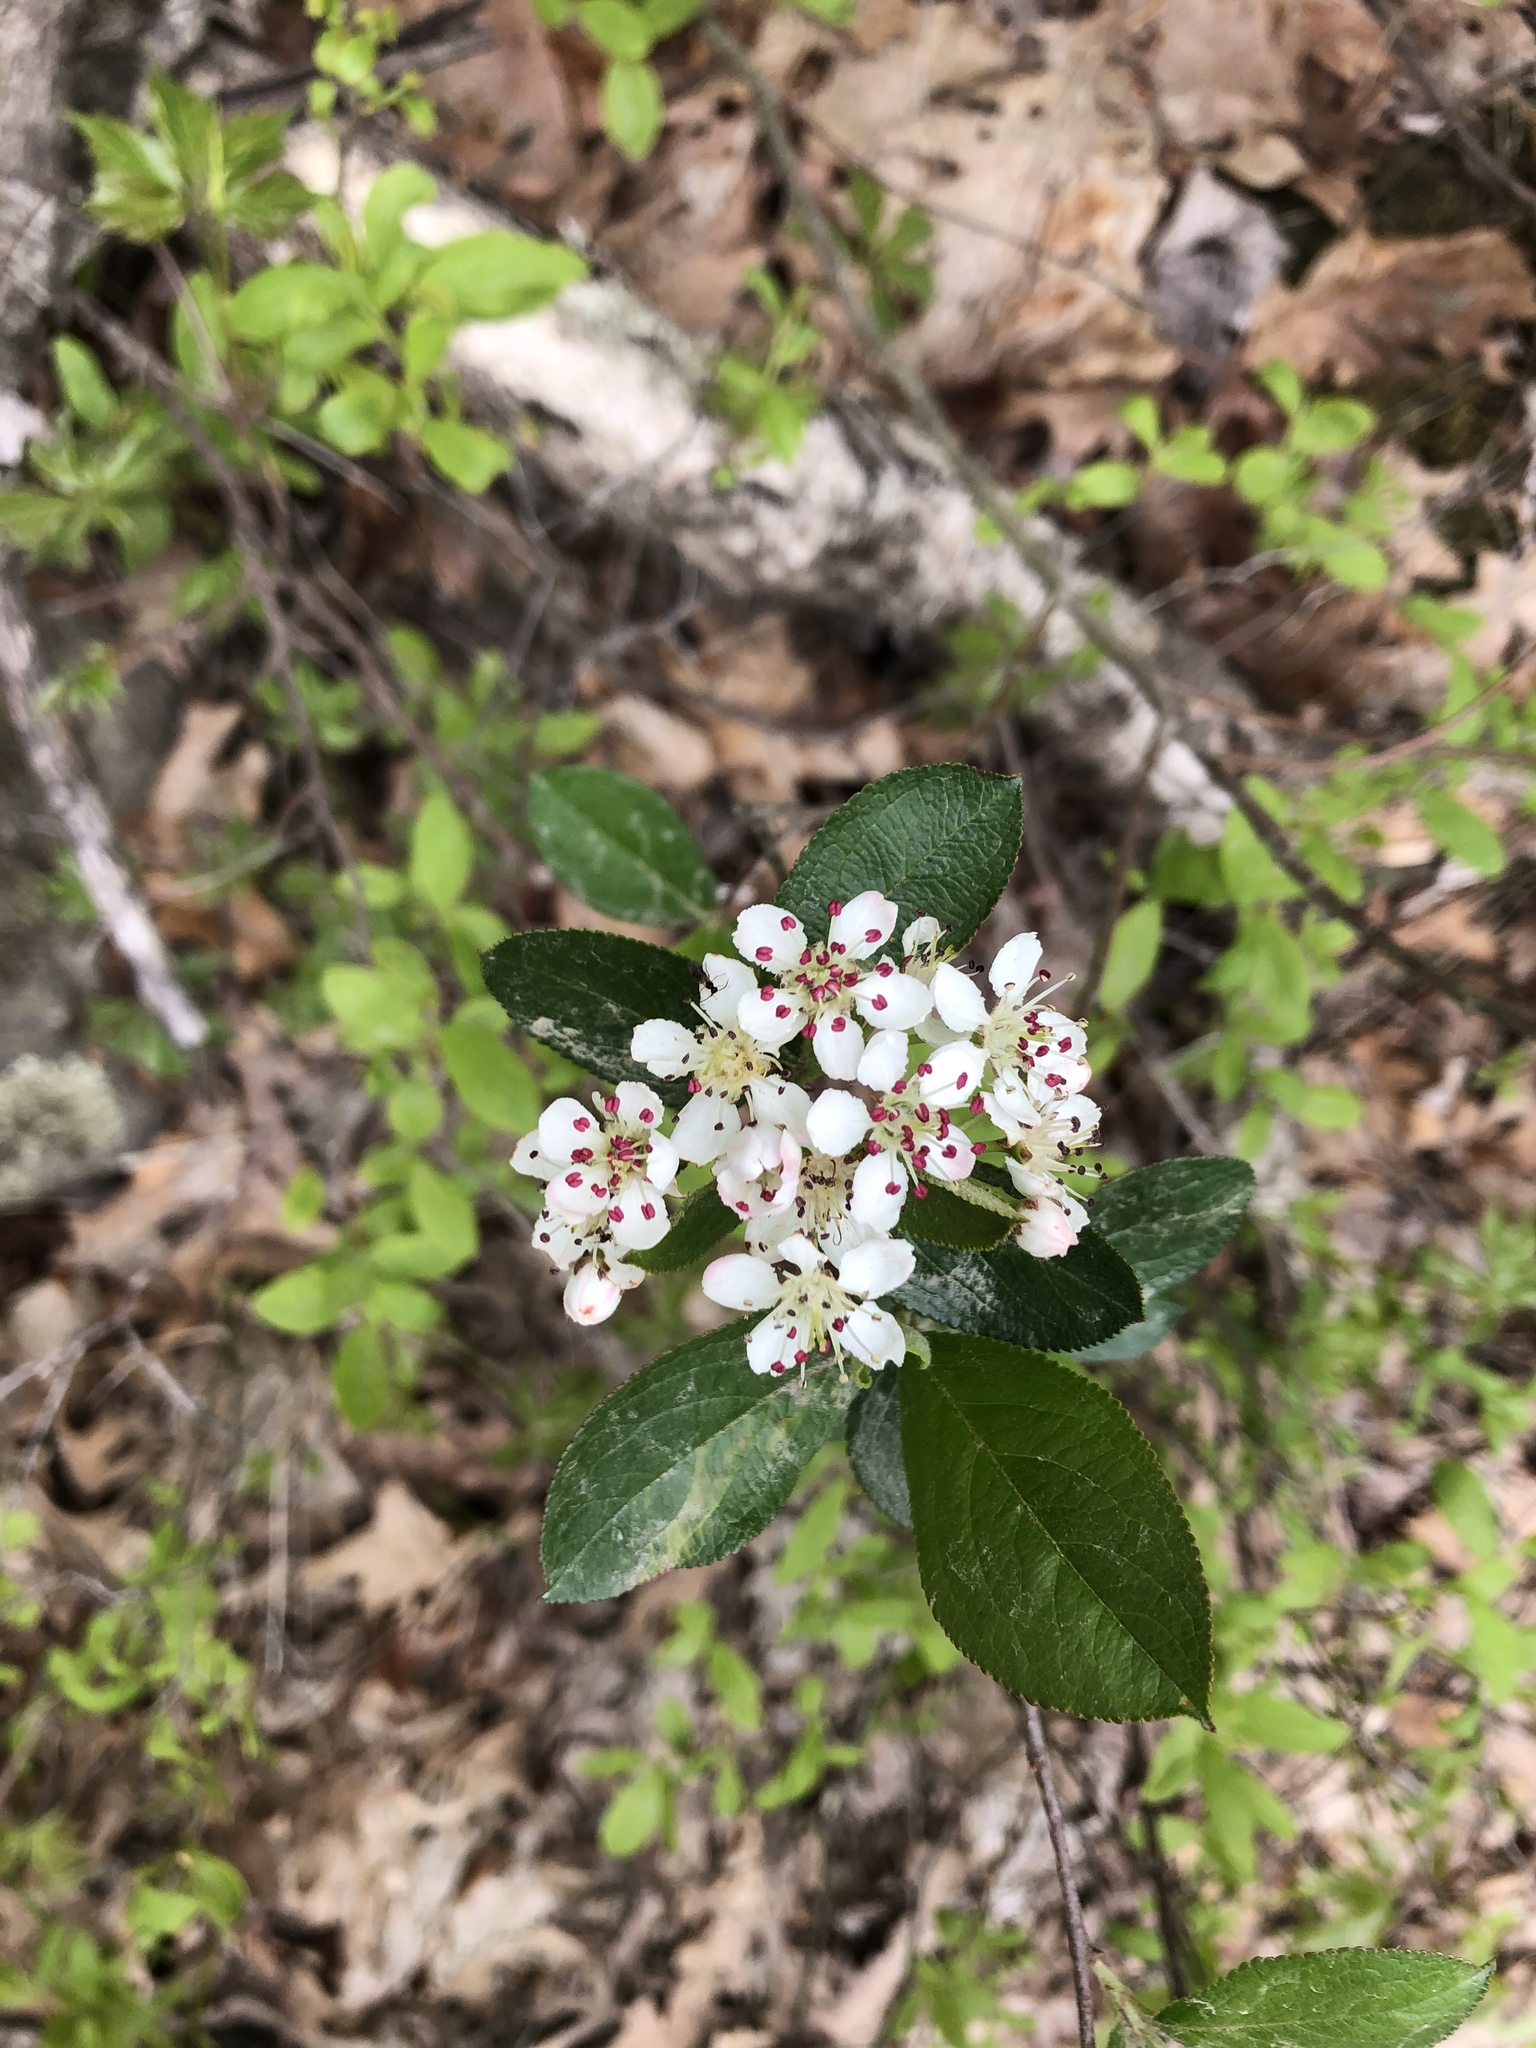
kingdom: Plantae
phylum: Tracheophyta
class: Magnoliopsida
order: Rosales
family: Rosaceae
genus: Aronia
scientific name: Aronia melanocarpa
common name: Black chokeberry
